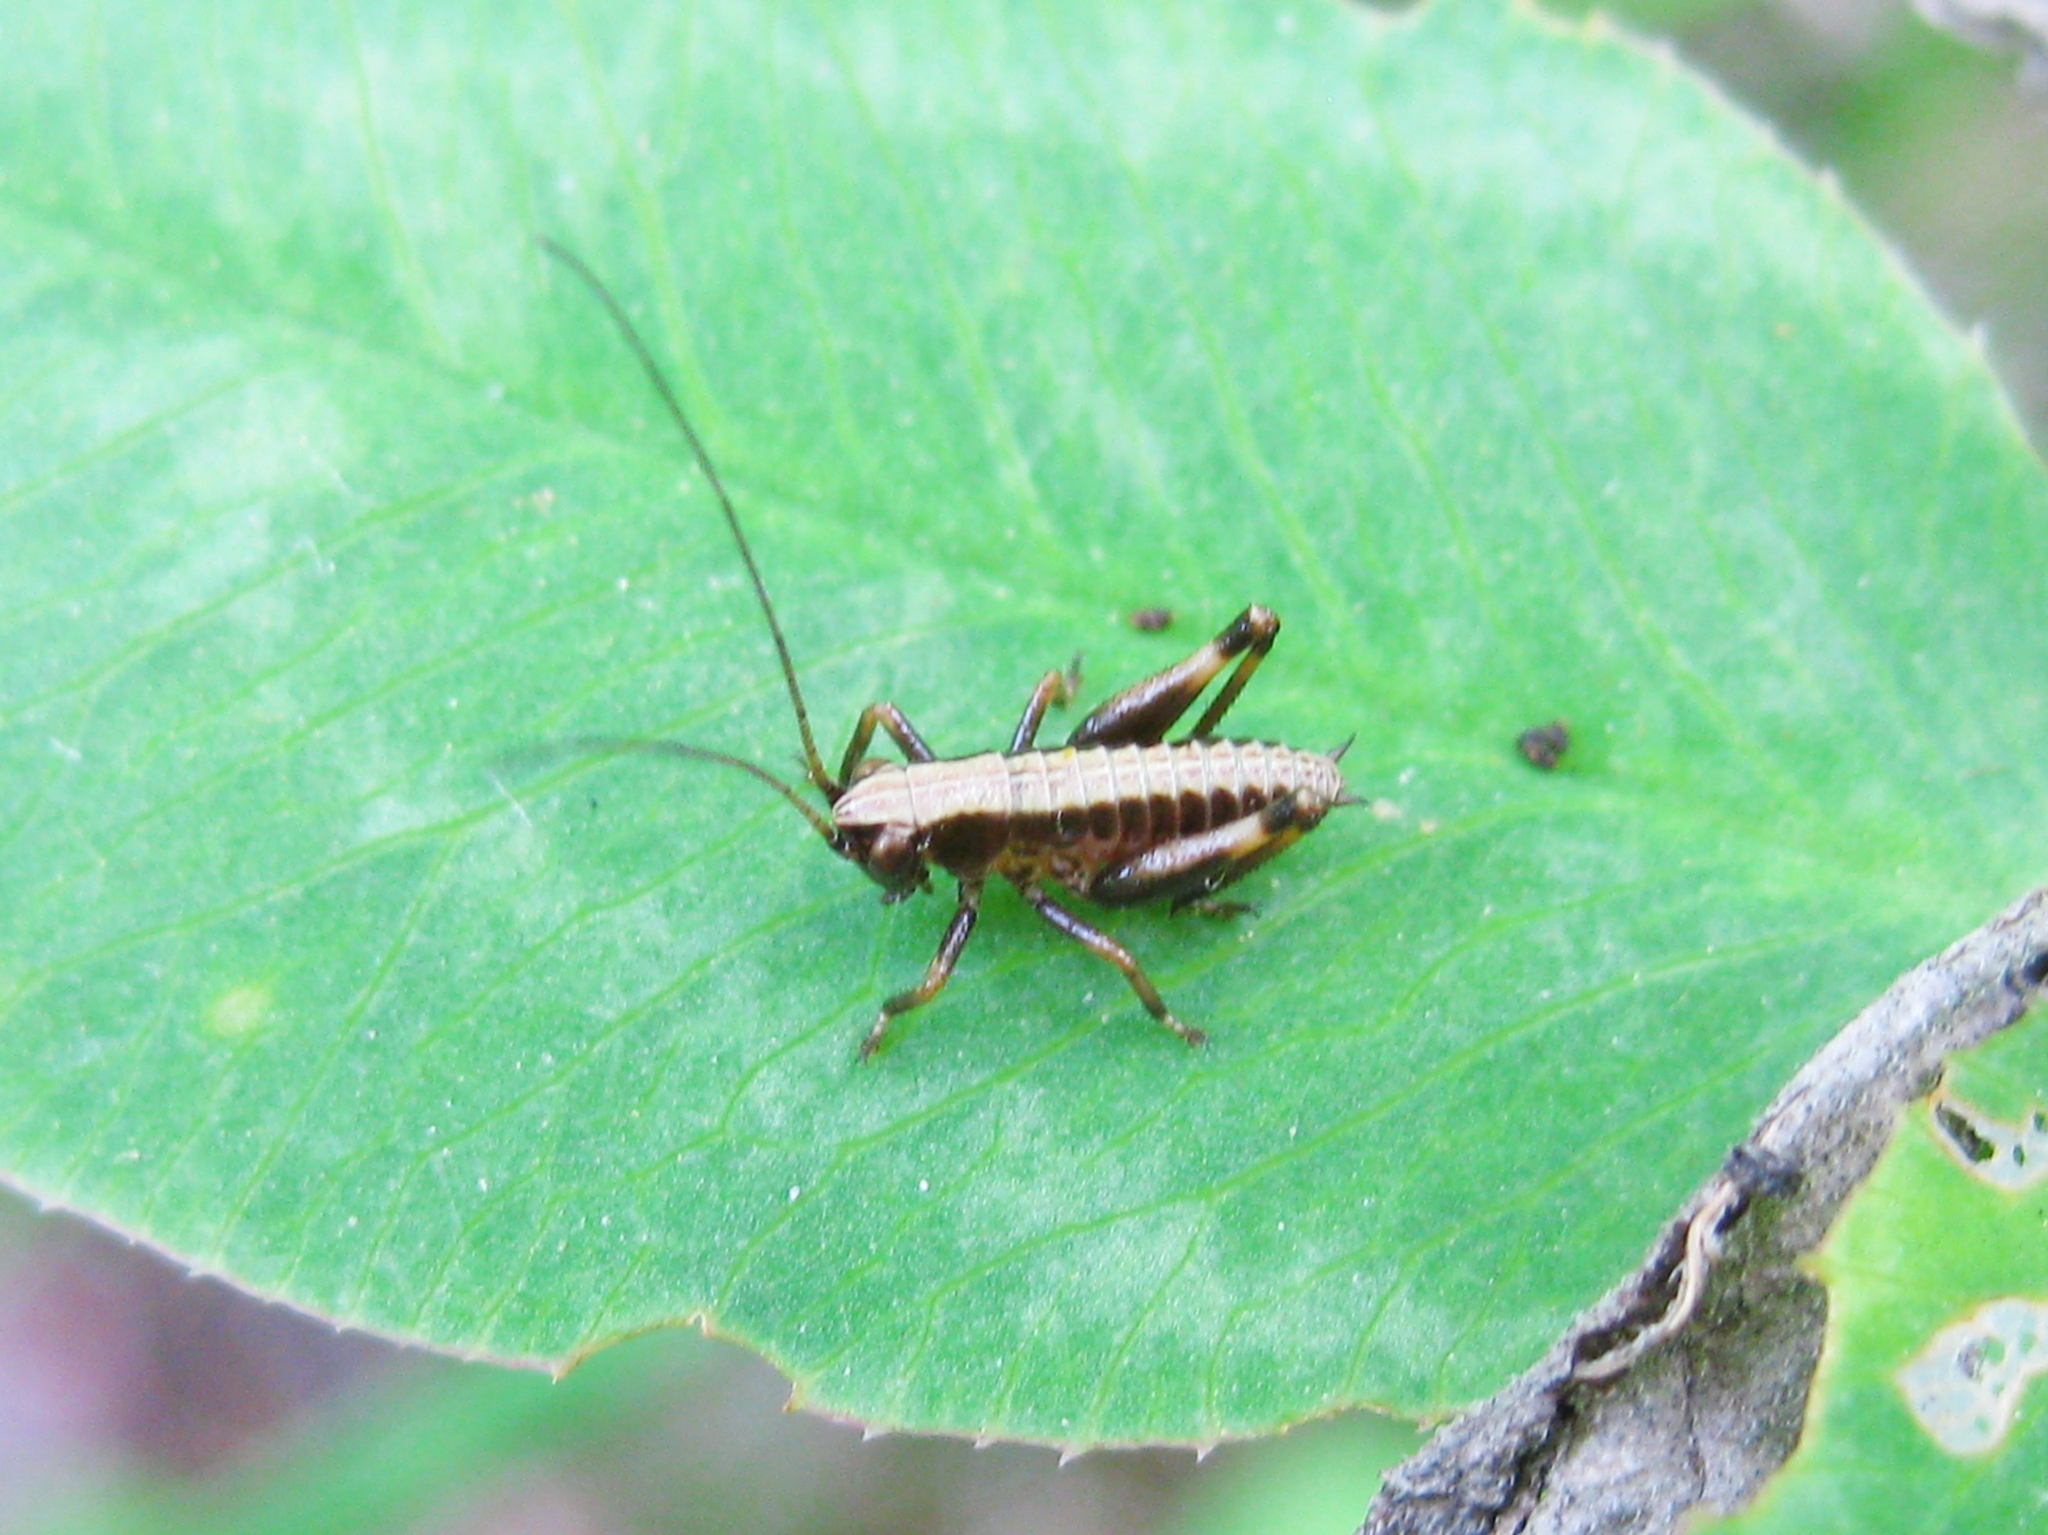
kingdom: Animalia
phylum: Arthropoda
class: Insecta
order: Orthoptera
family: Tettigoniidae
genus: Pholidoptera
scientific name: Pholidoptera
